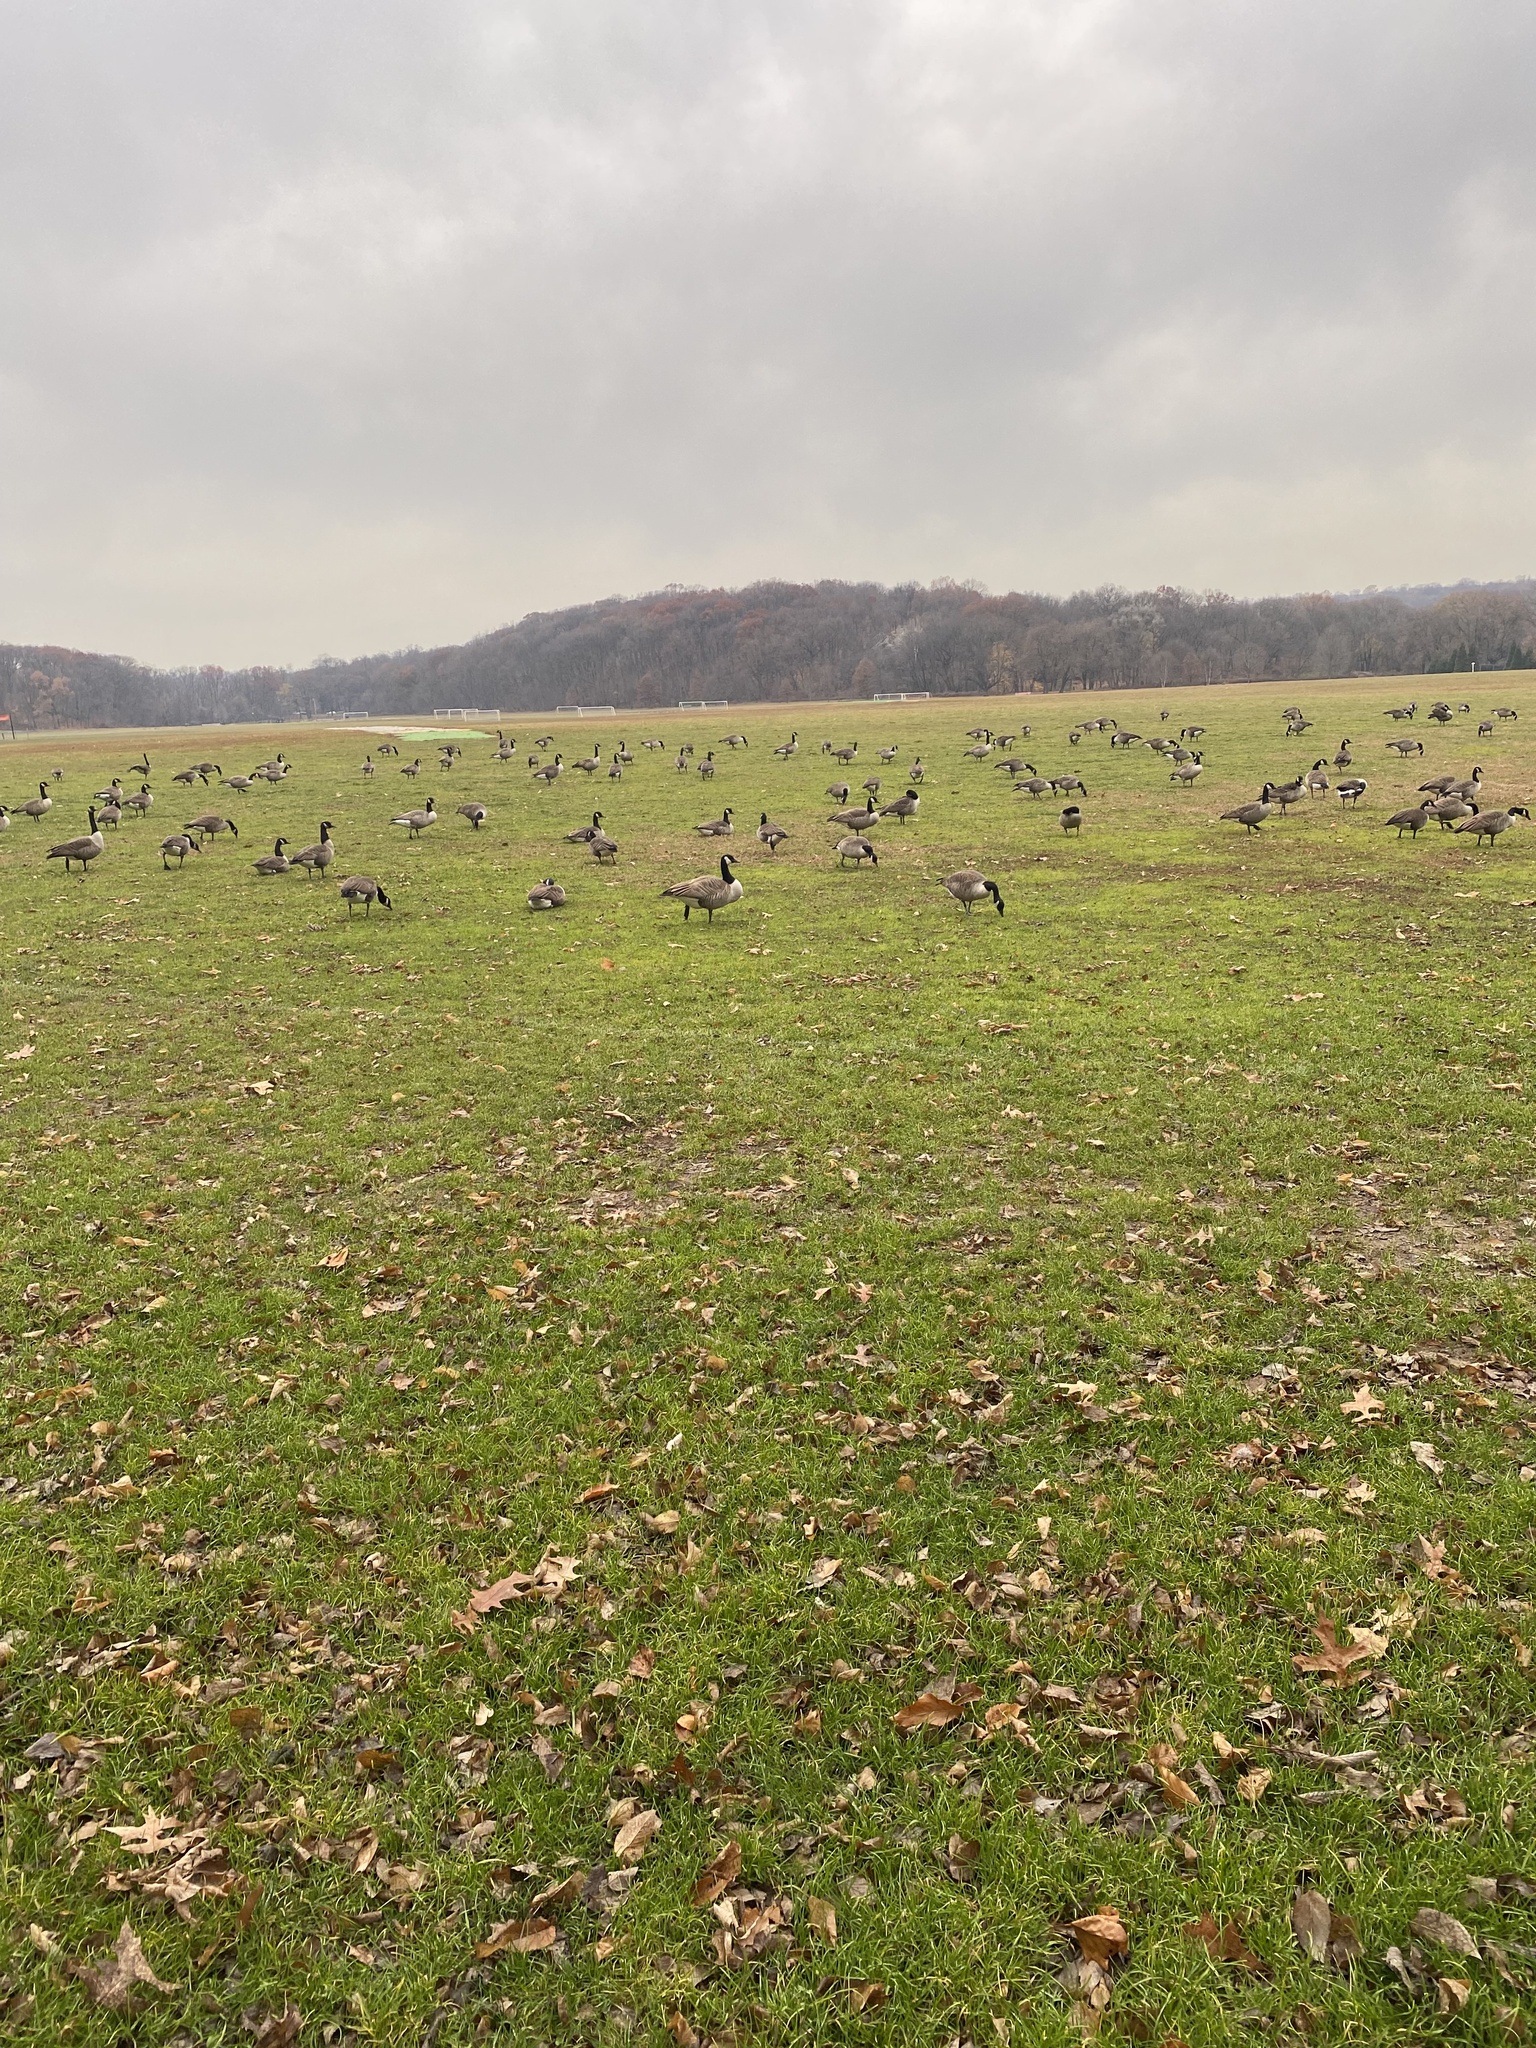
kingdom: Animalia
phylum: Chordata
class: Aves
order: Anseriformes
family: Anatidae
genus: Branta
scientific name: Branta canadensis
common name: Canada goose
